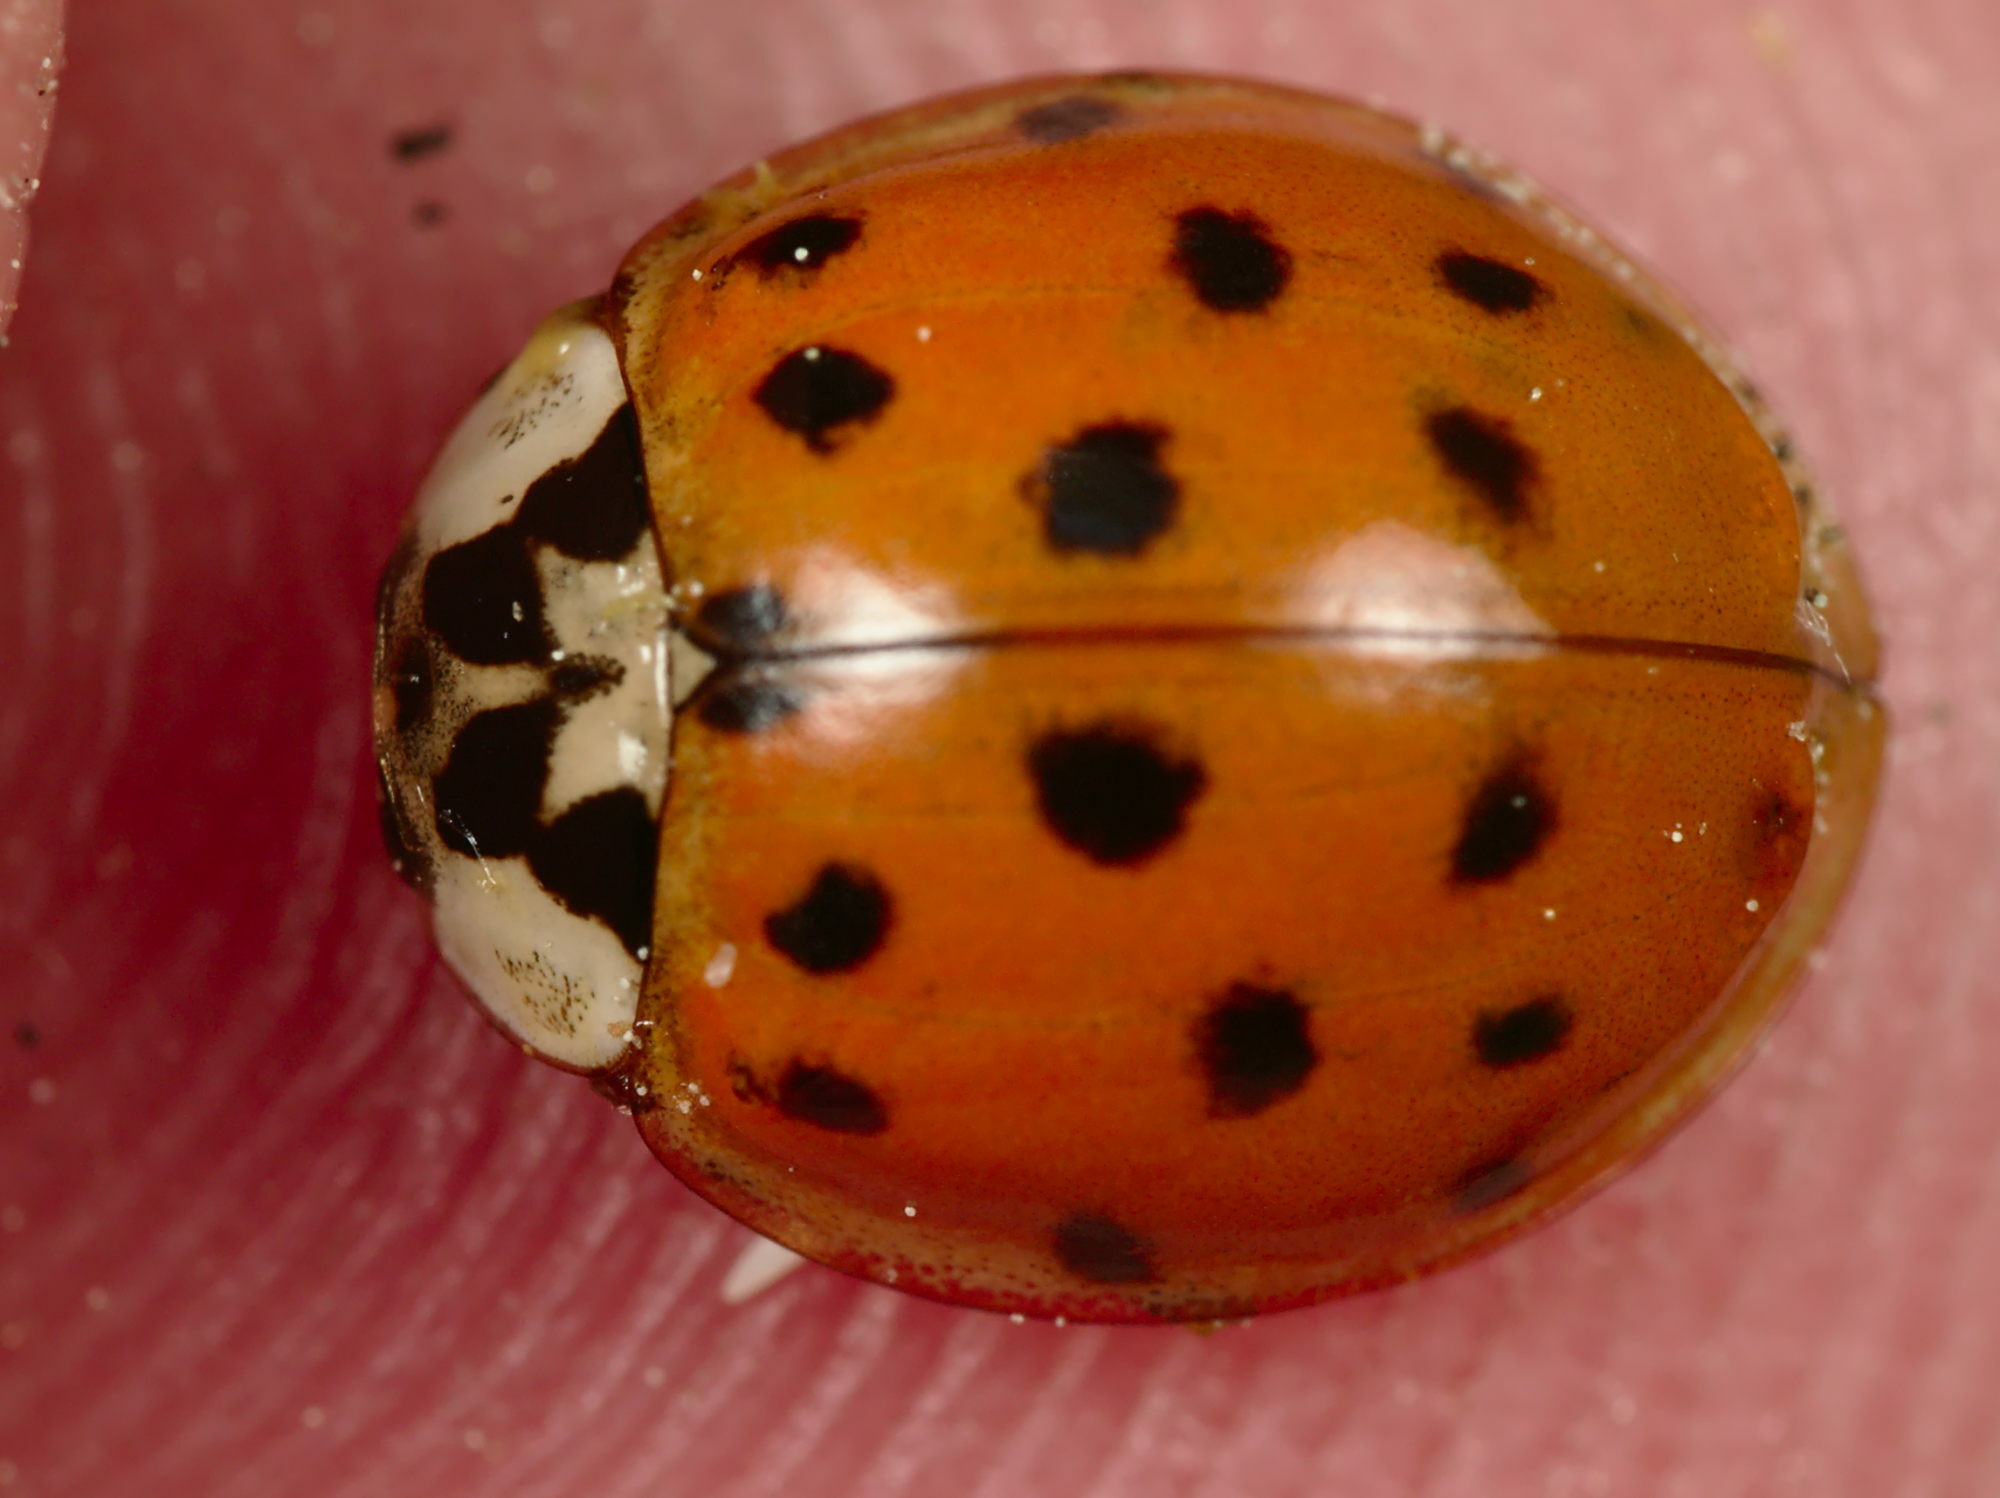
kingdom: Animalia
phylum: Arthropoda
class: Insecta
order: Coleoptera
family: Coccinellidae
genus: Harmonia
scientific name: Harmonia axyridis
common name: Harlequin ladybird
